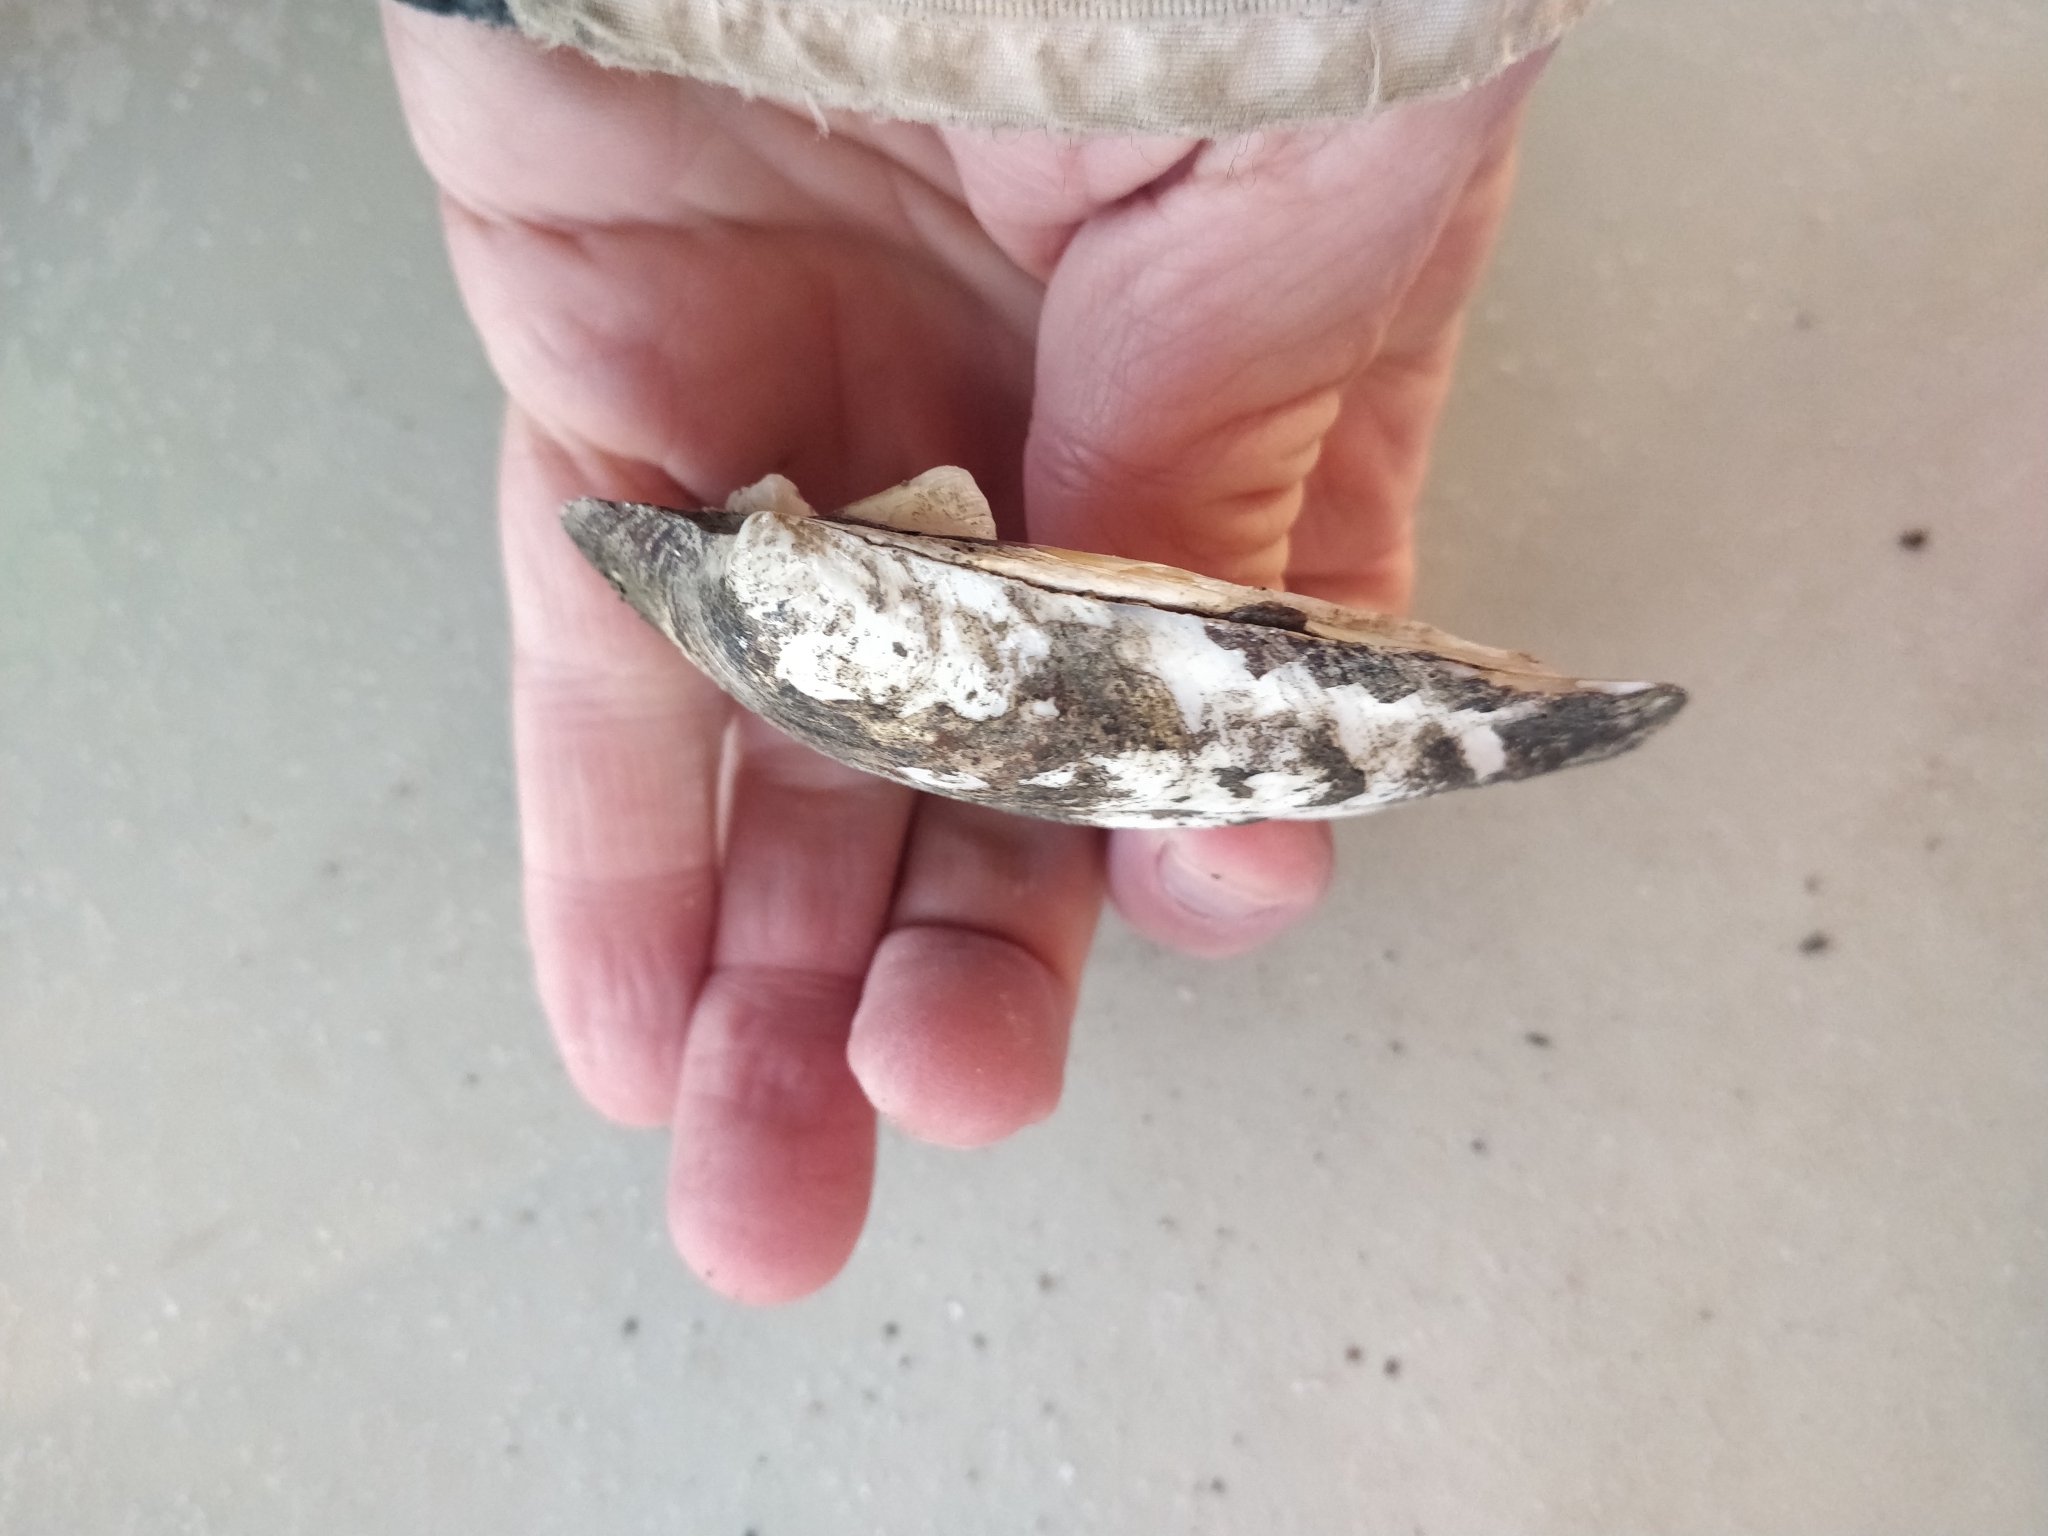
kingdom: Animalia
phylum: Mollusca
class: Bivalvia
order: Unionida
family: Unionidae
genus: Amblema
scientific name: Amblema plicata
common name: Threeridge
